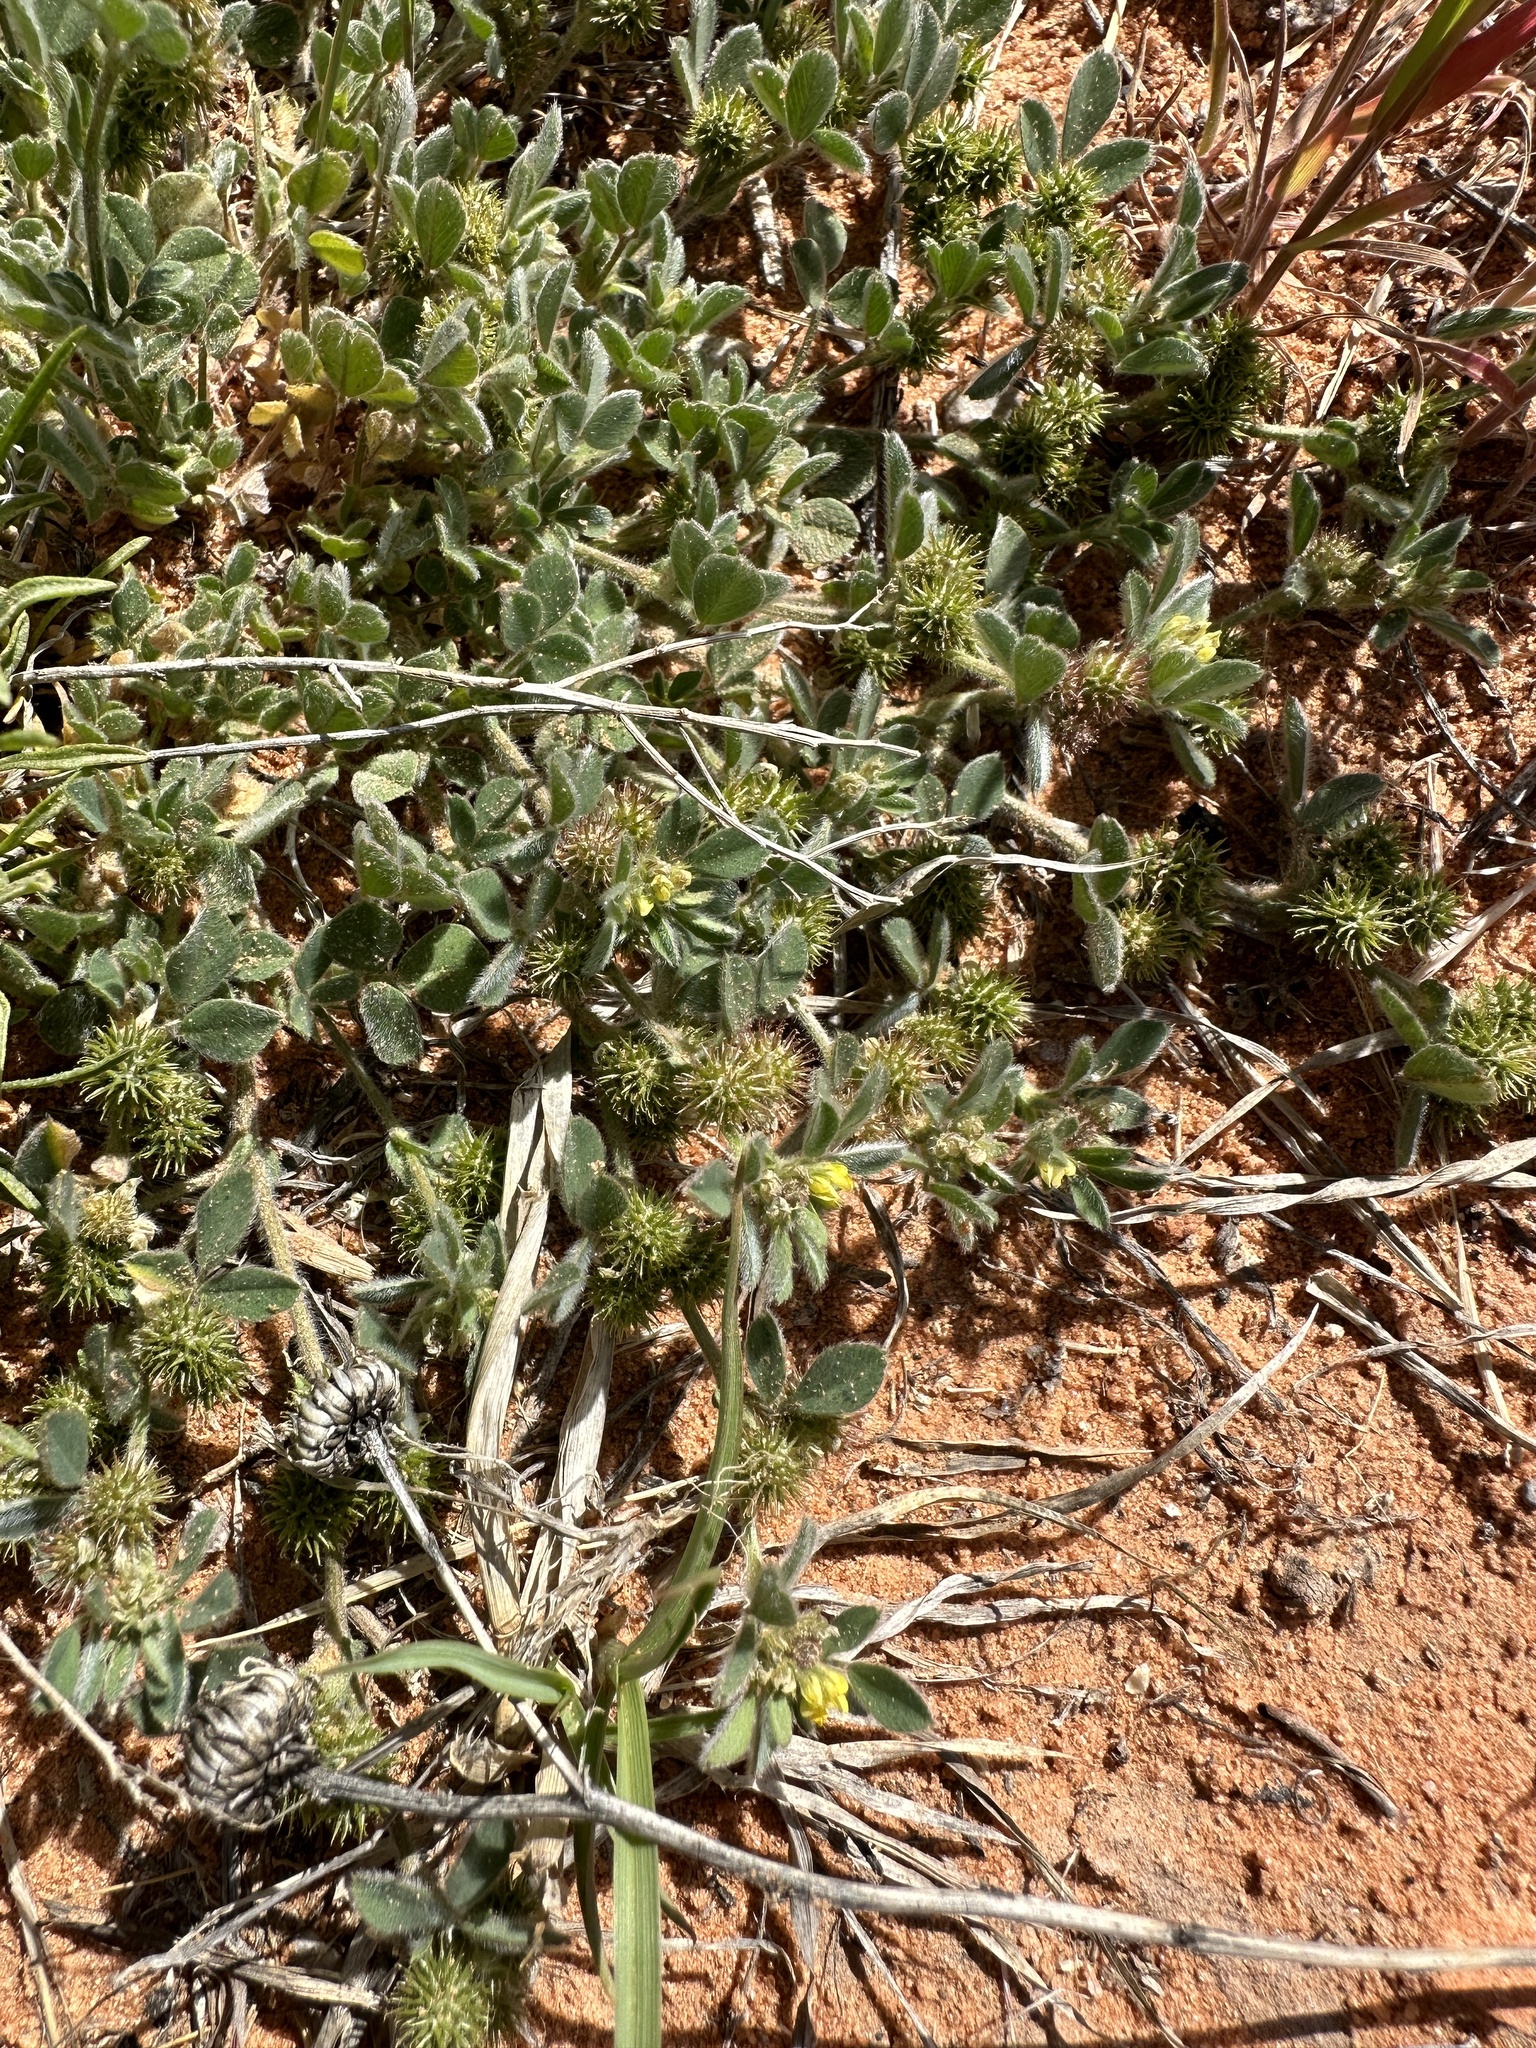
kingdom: Plantae
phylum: Tracheophyta
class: Magnoliopsida
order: Fabales
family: Fabaceae
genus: Medicago
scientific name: Medicago minima
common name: Little bur-clover
